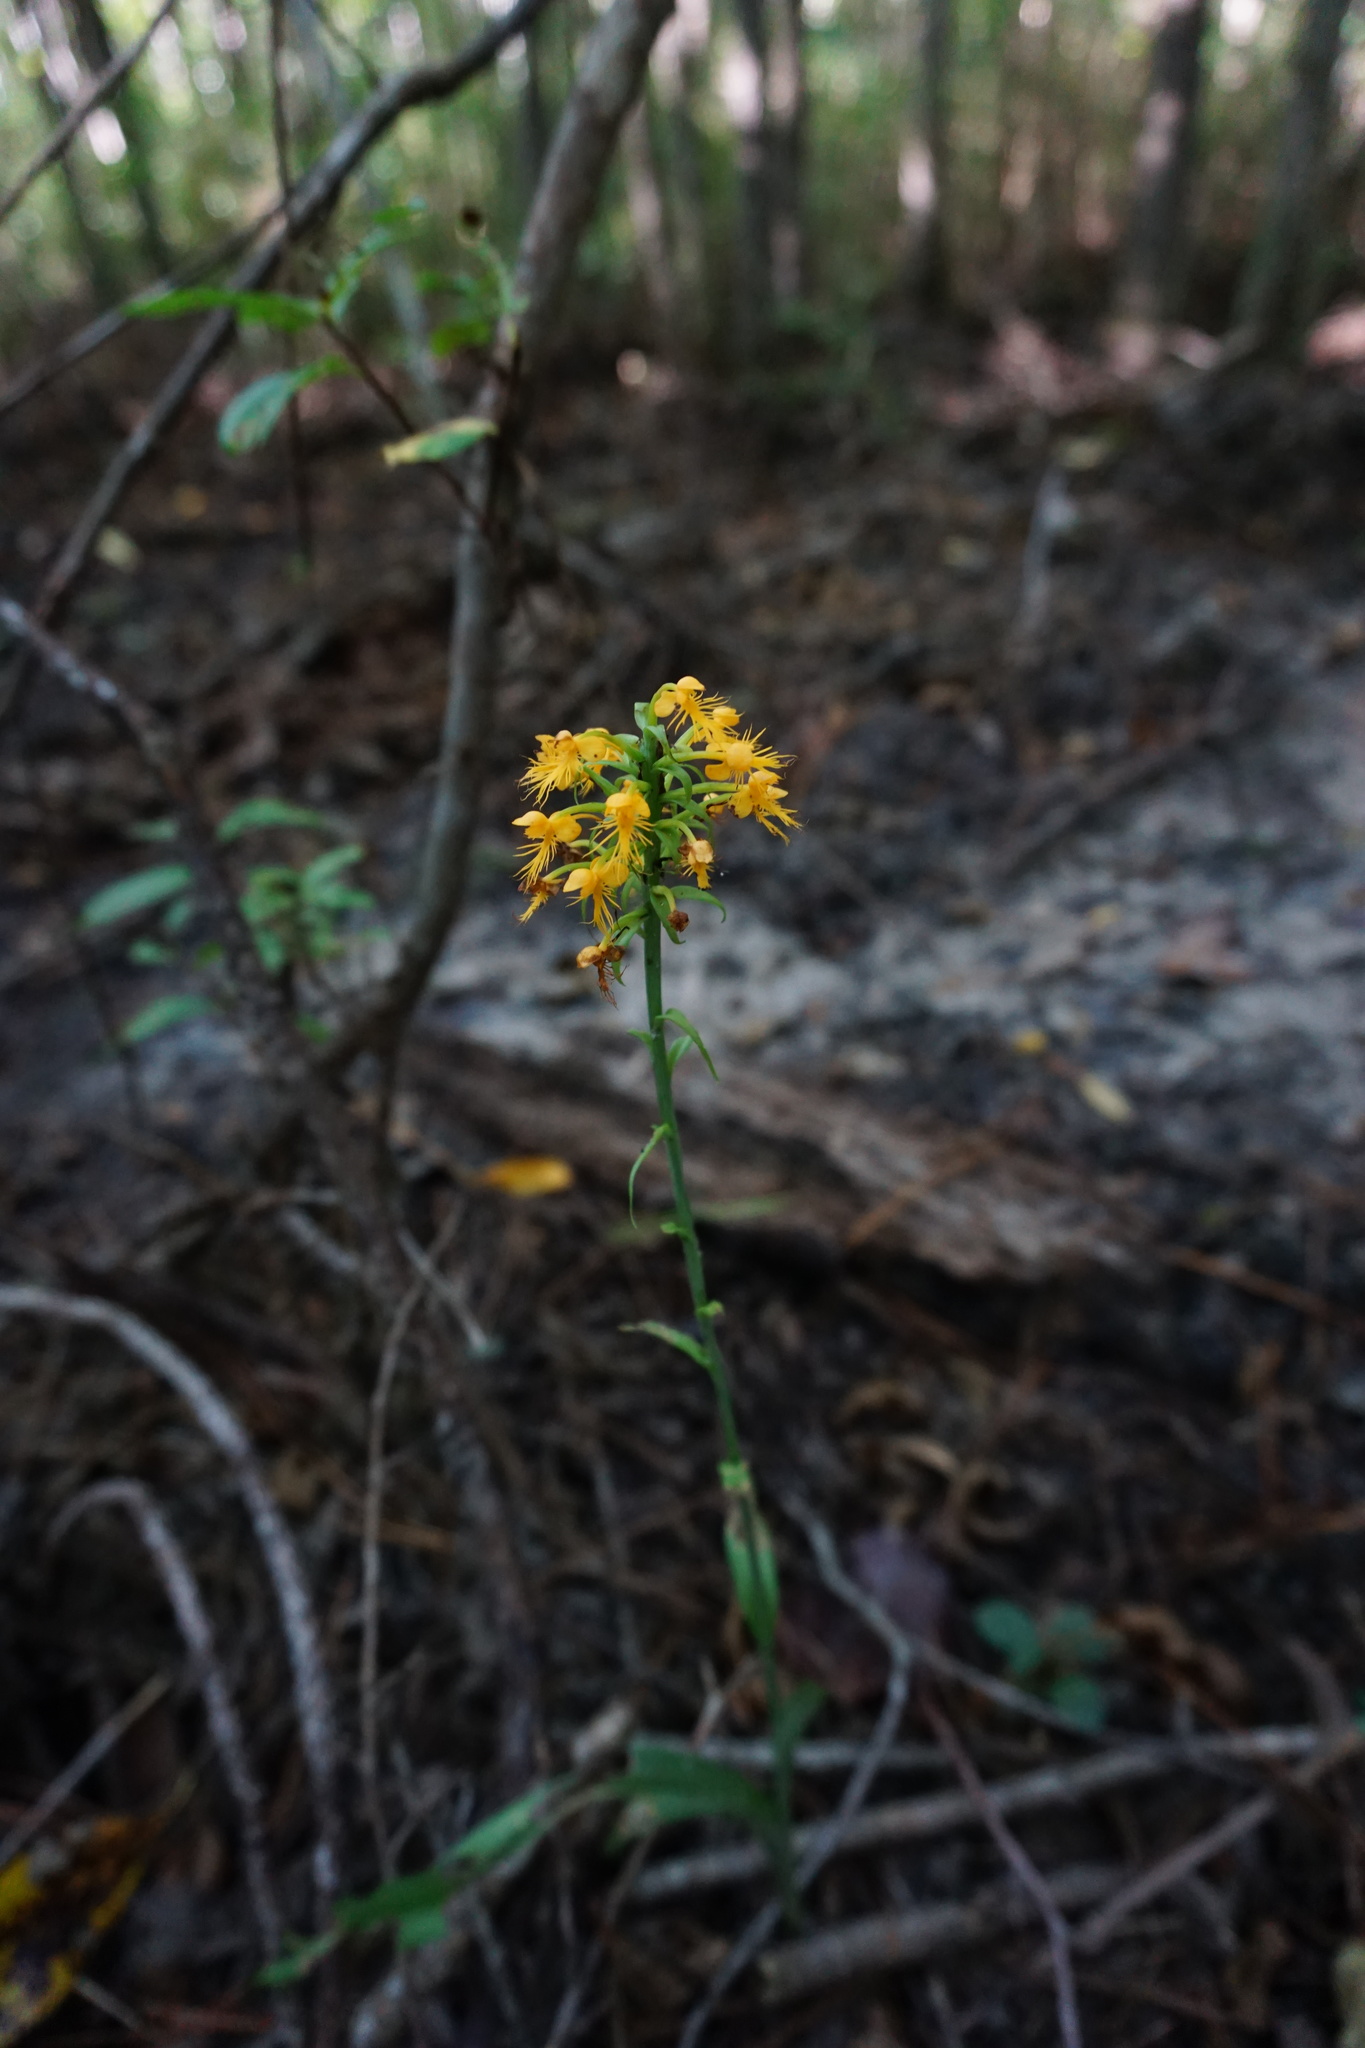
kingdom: Plantae
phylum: Tracheophyta
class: Liliopsida
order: Asparagales
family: Orchidaceae
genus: Platanthera
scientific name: Platanthera cristata
